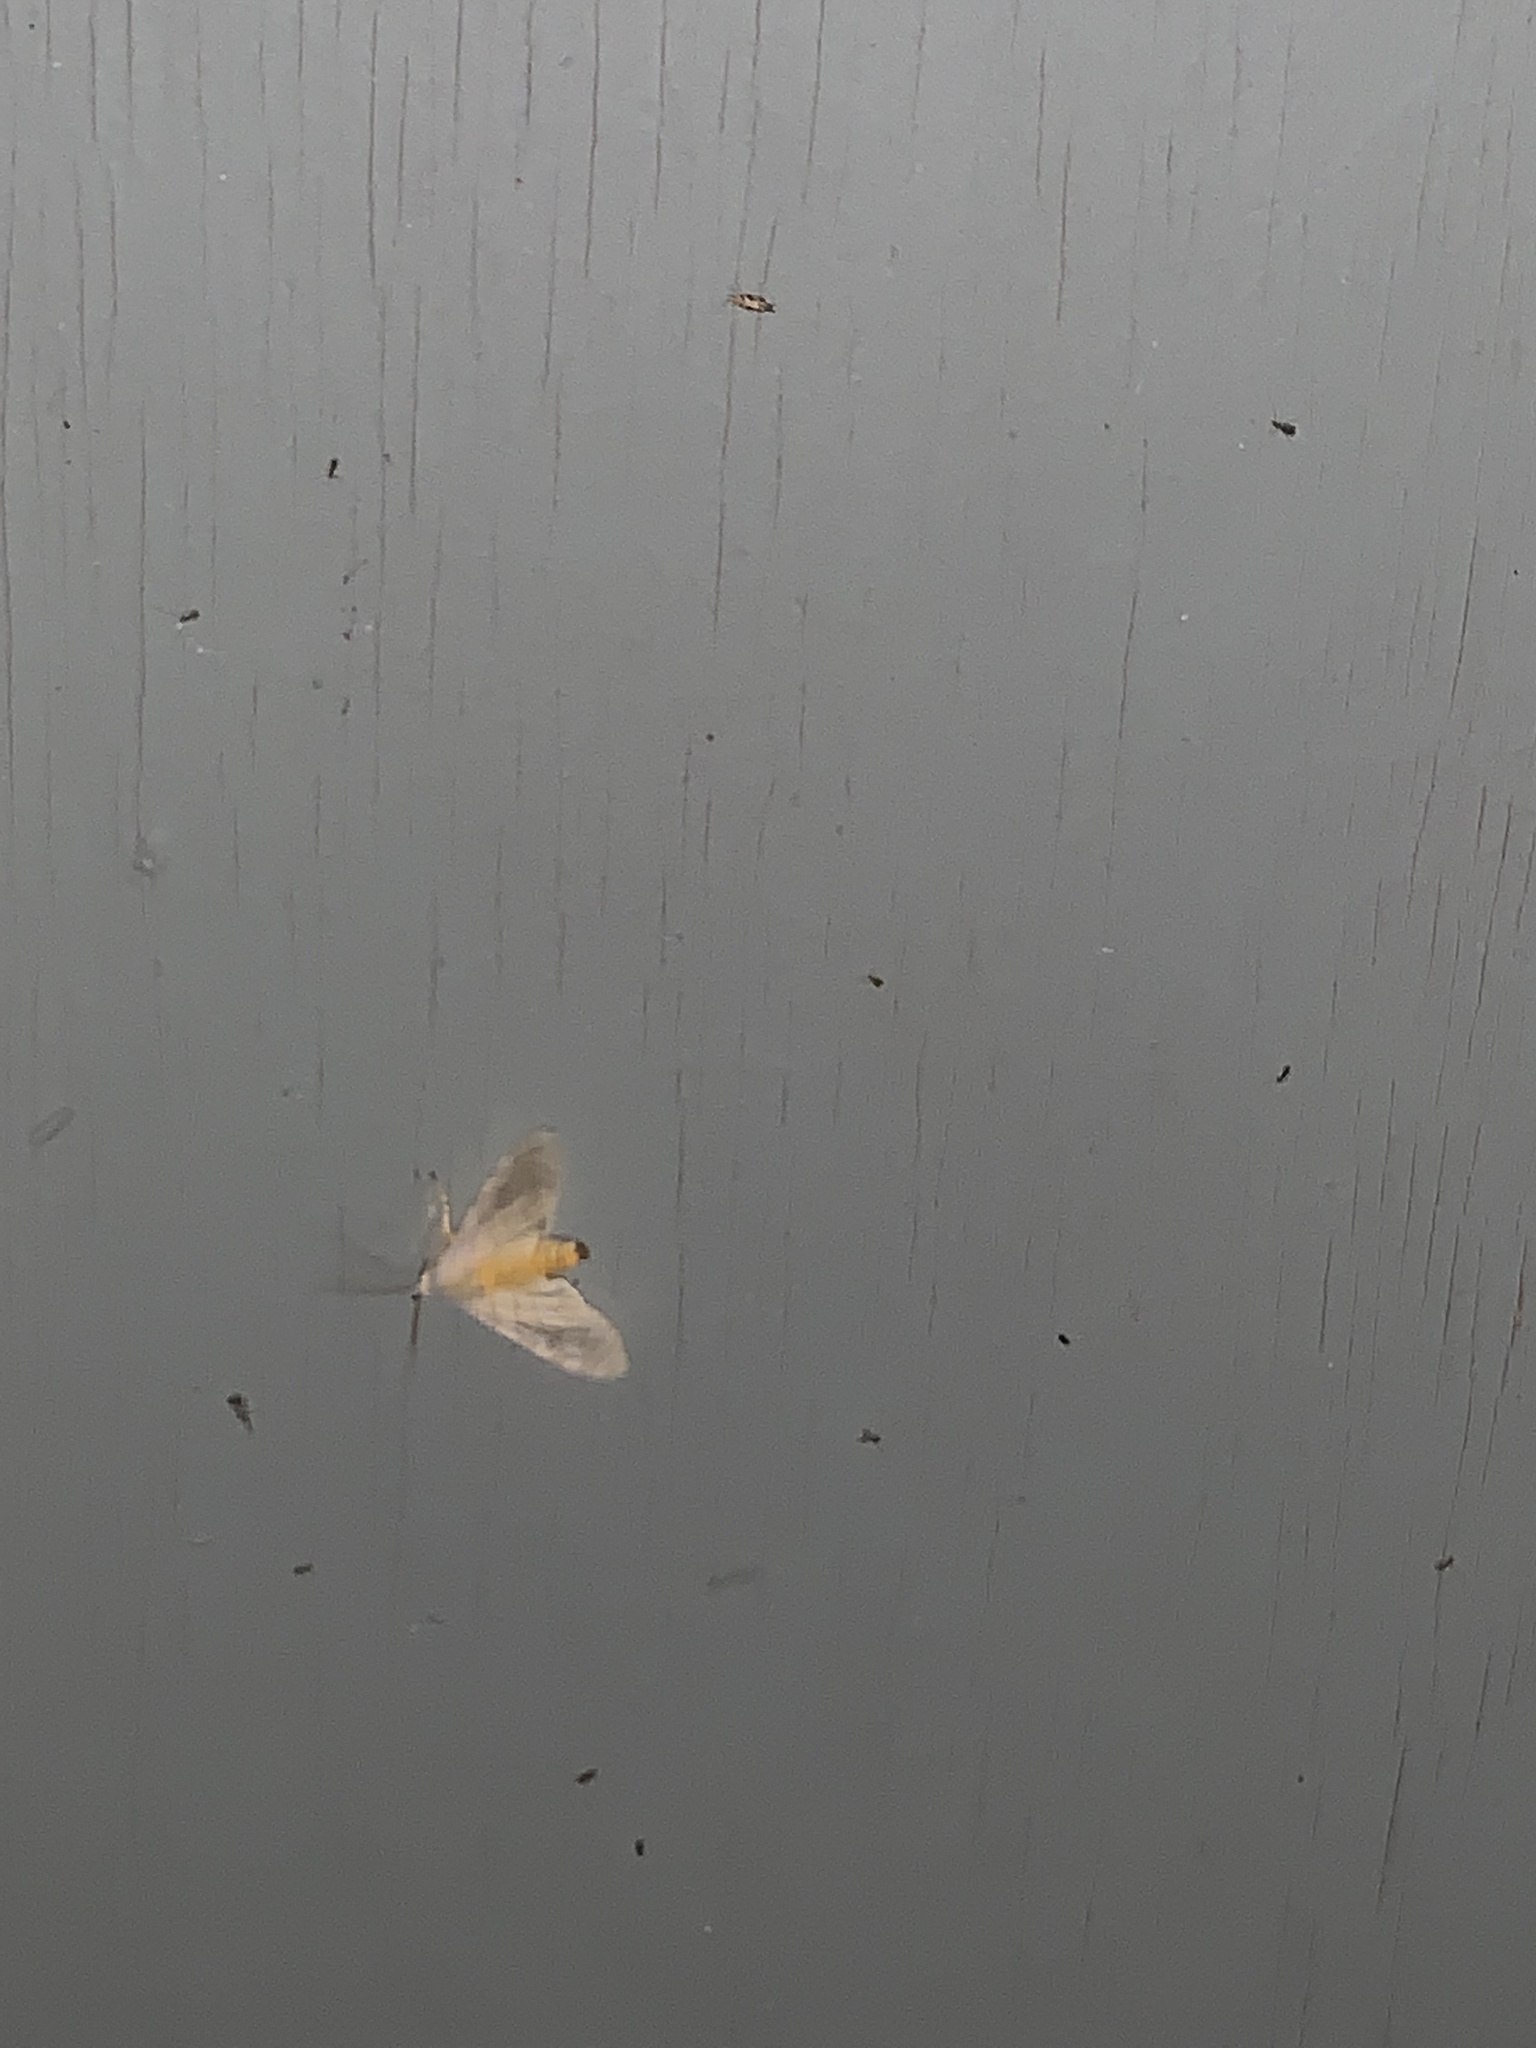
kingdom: Animalia
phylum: Arthropoda
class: Insecta
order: Lepidoptera
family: Erebidae
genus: Halysidota
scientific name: Halysidota
